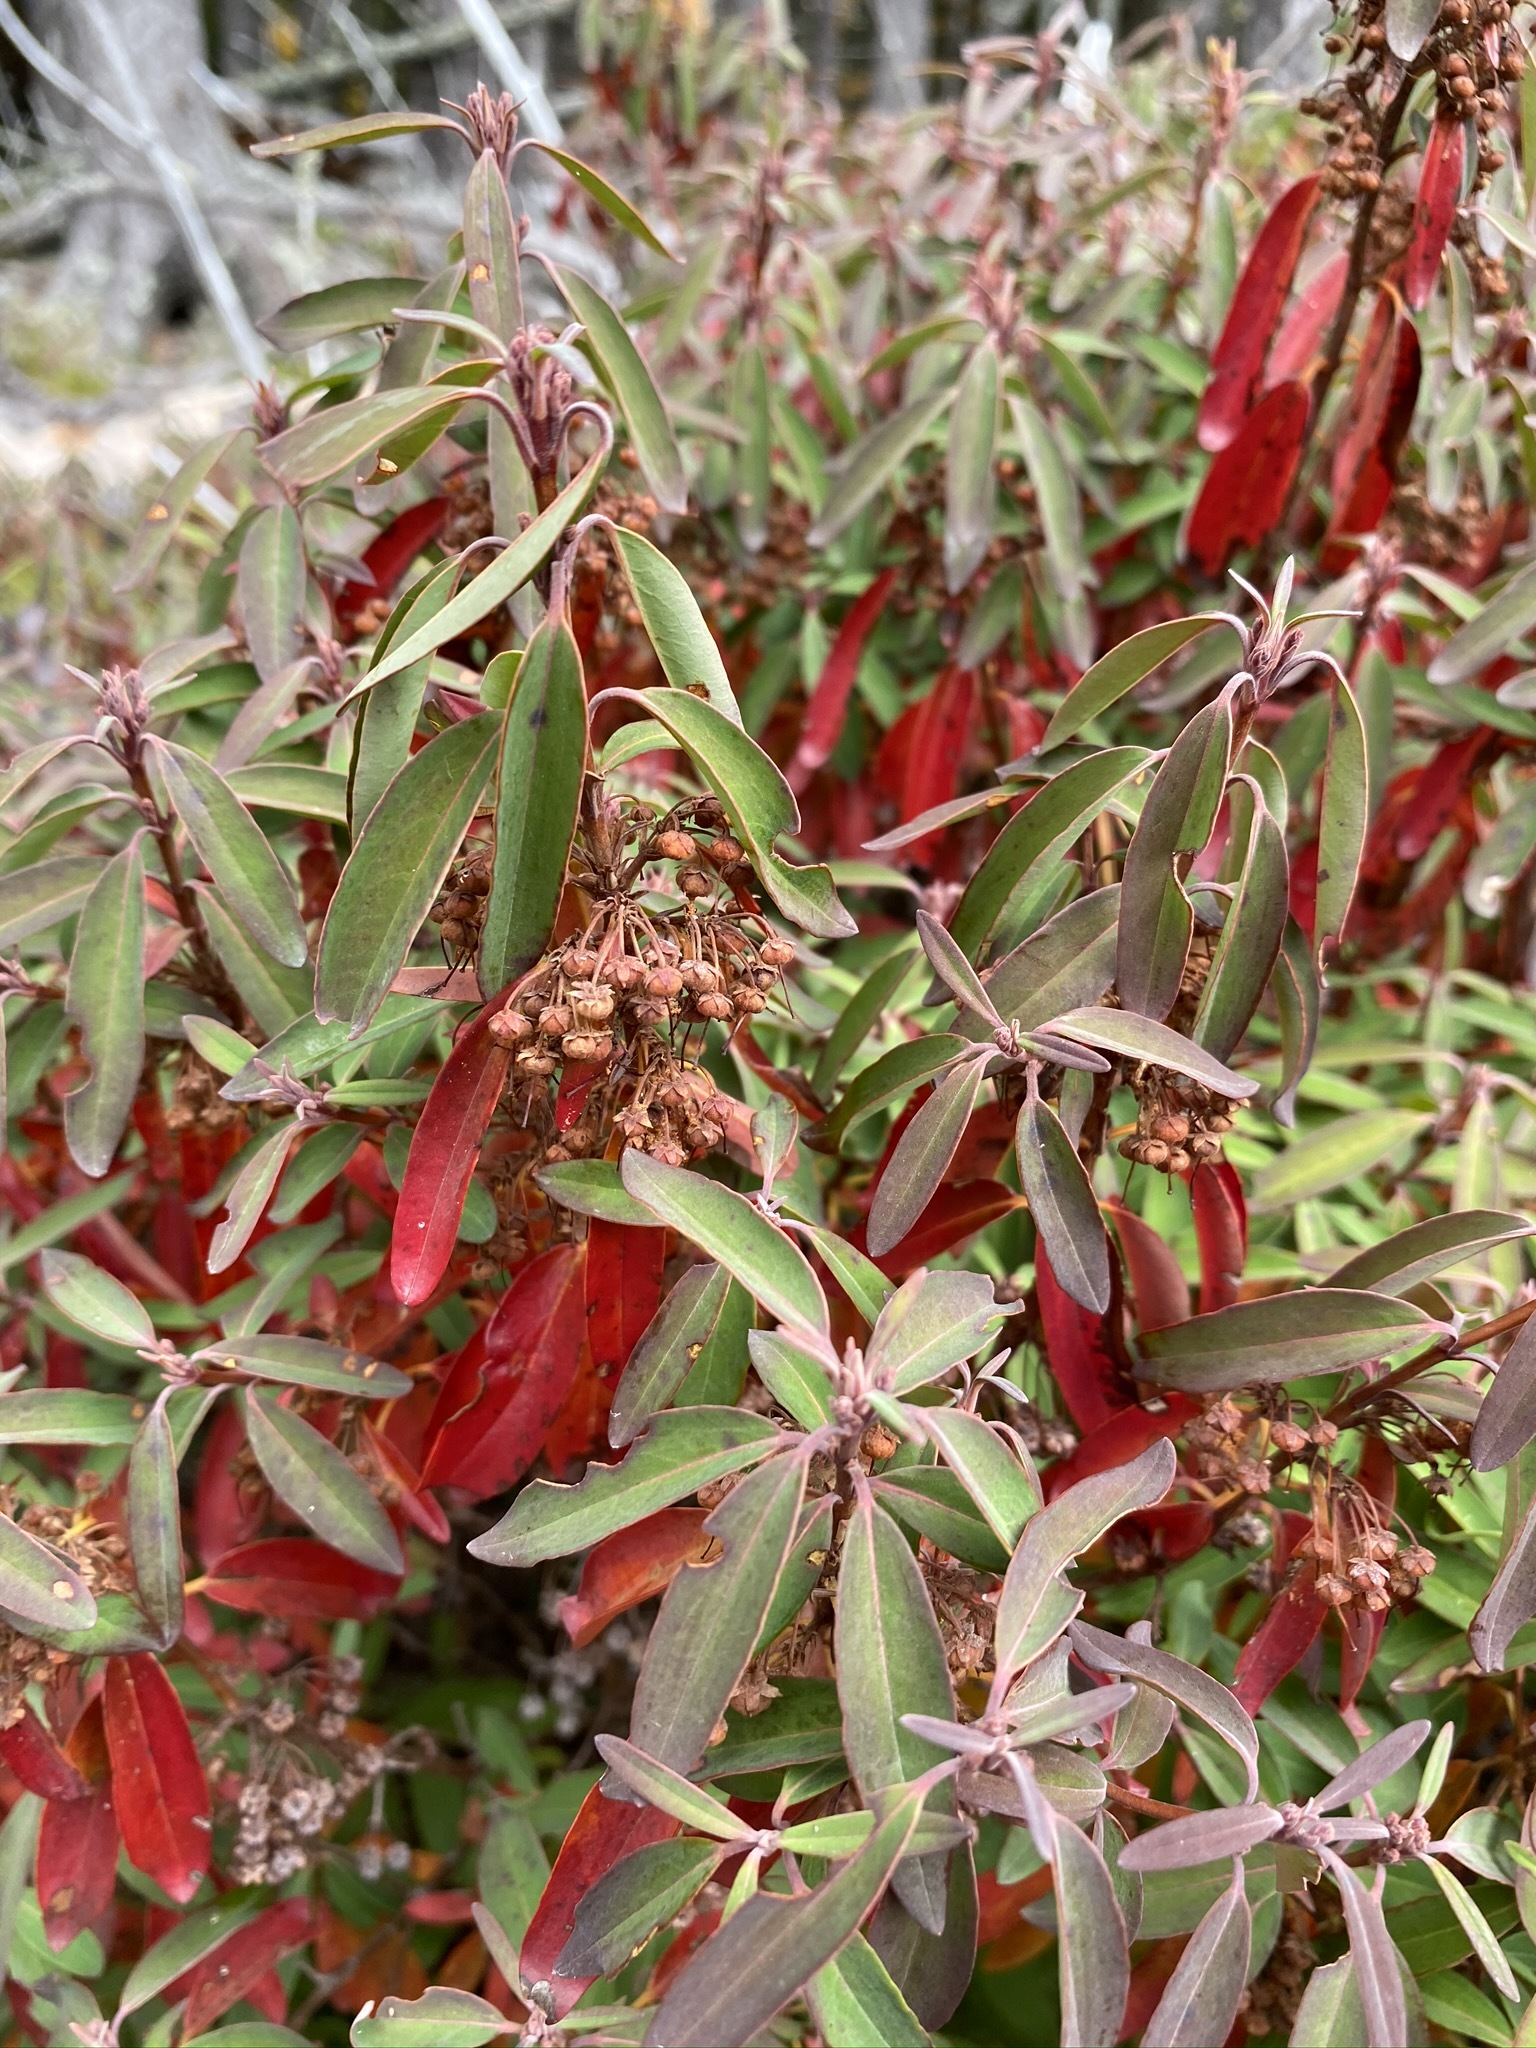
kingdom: Plantae
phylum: Tracheophyta
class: Magnoliopsida
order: Ericales
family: Ericaceae
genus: Kalmia
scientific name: Kalmia angustifolia
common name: Sheep-laurel
